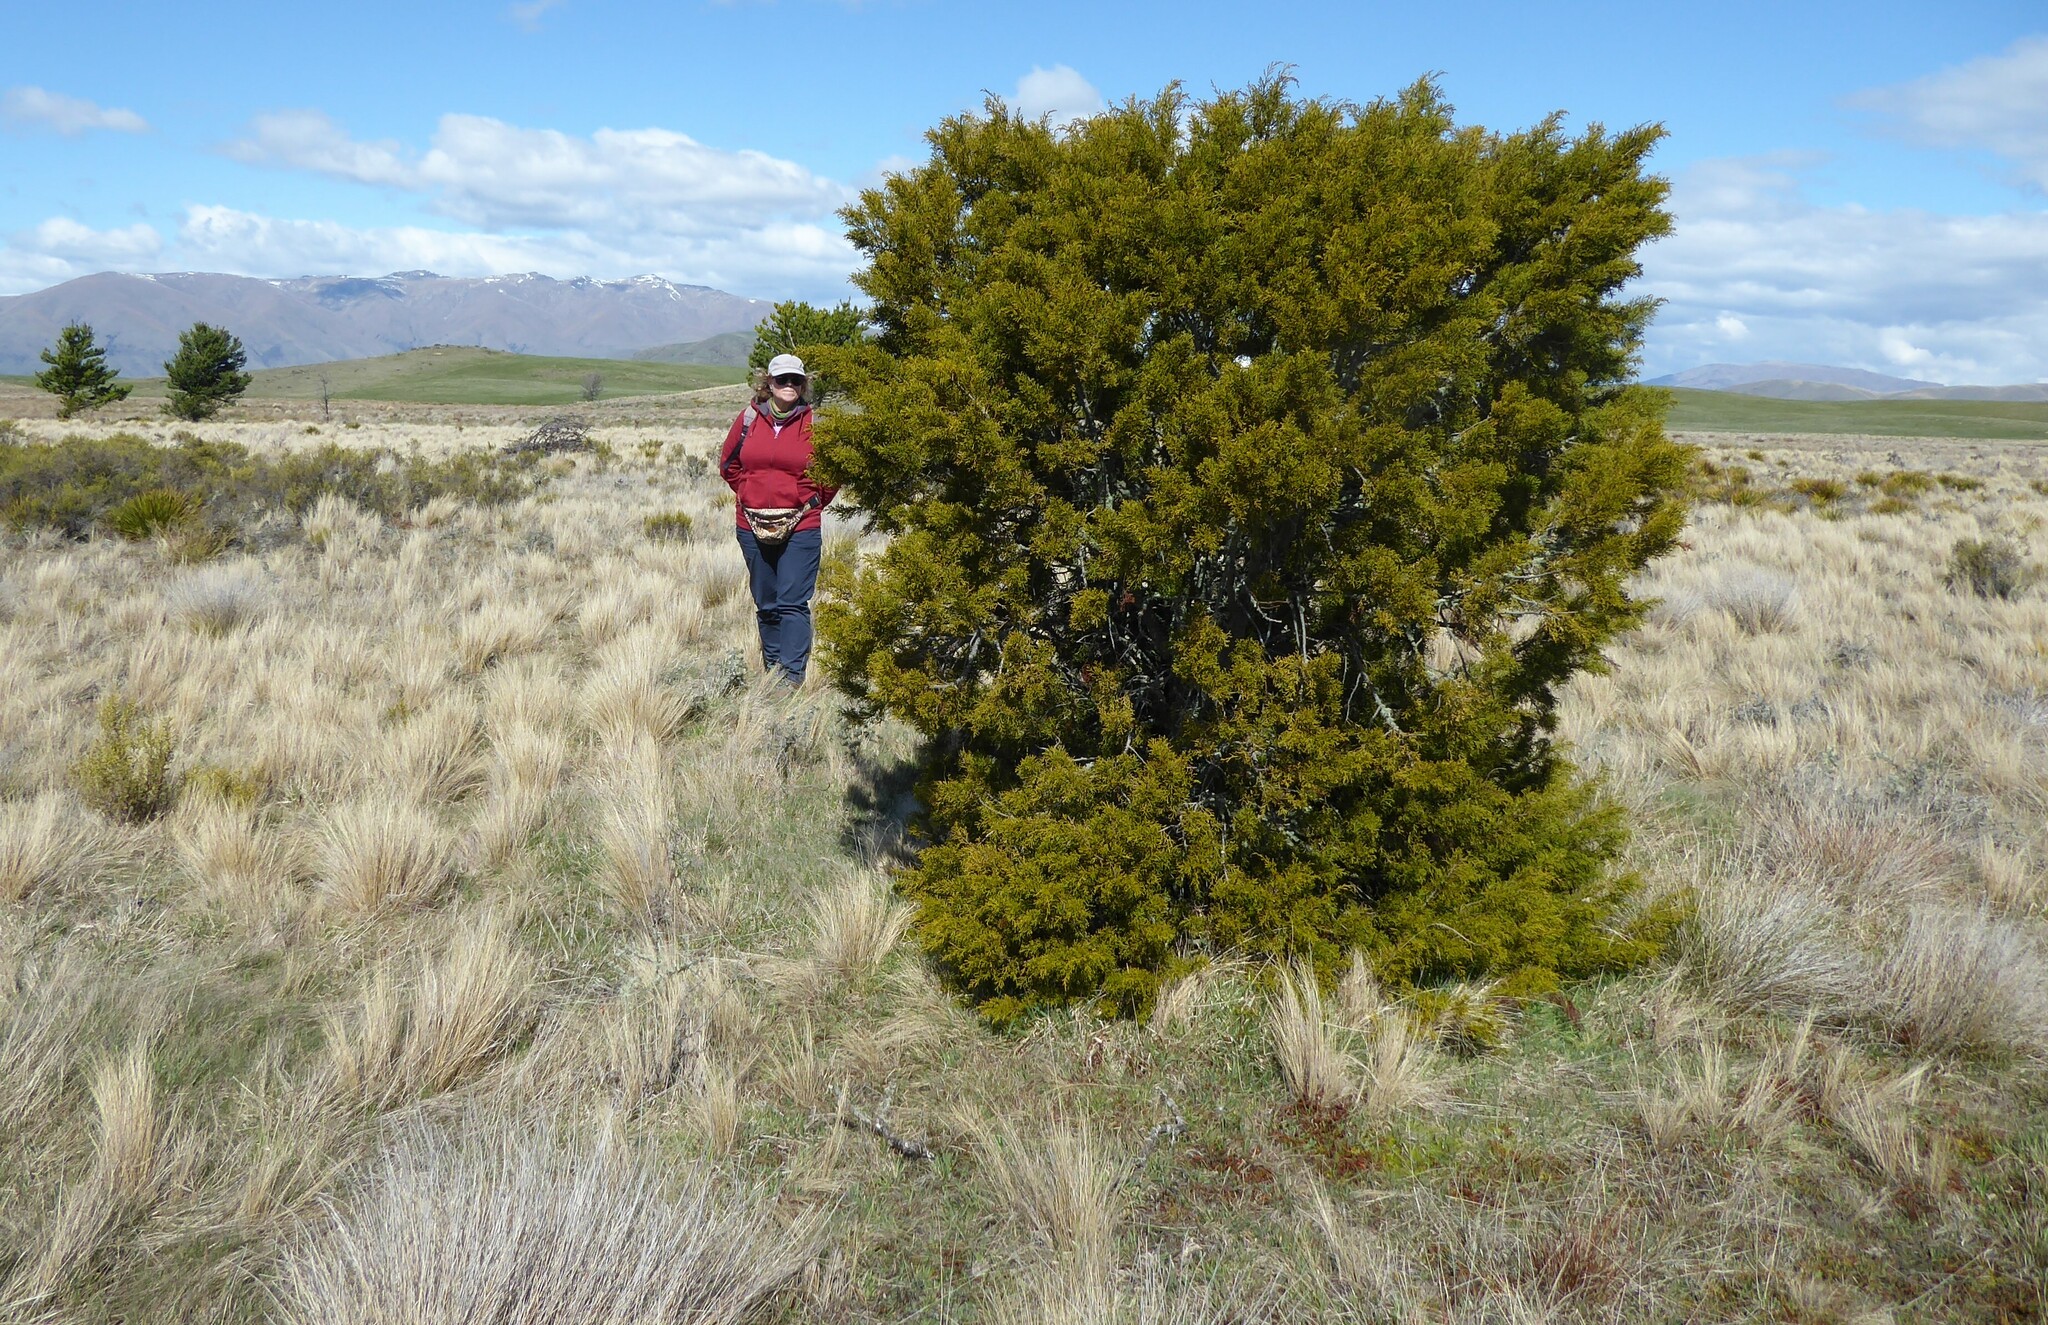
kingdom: Plantae
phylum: Tracheophyta
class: Pinopsida
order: Pinales
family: Podocarpaceae
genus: Halocarpus
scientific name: Halocarpus bidwillii
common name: Bog pine
